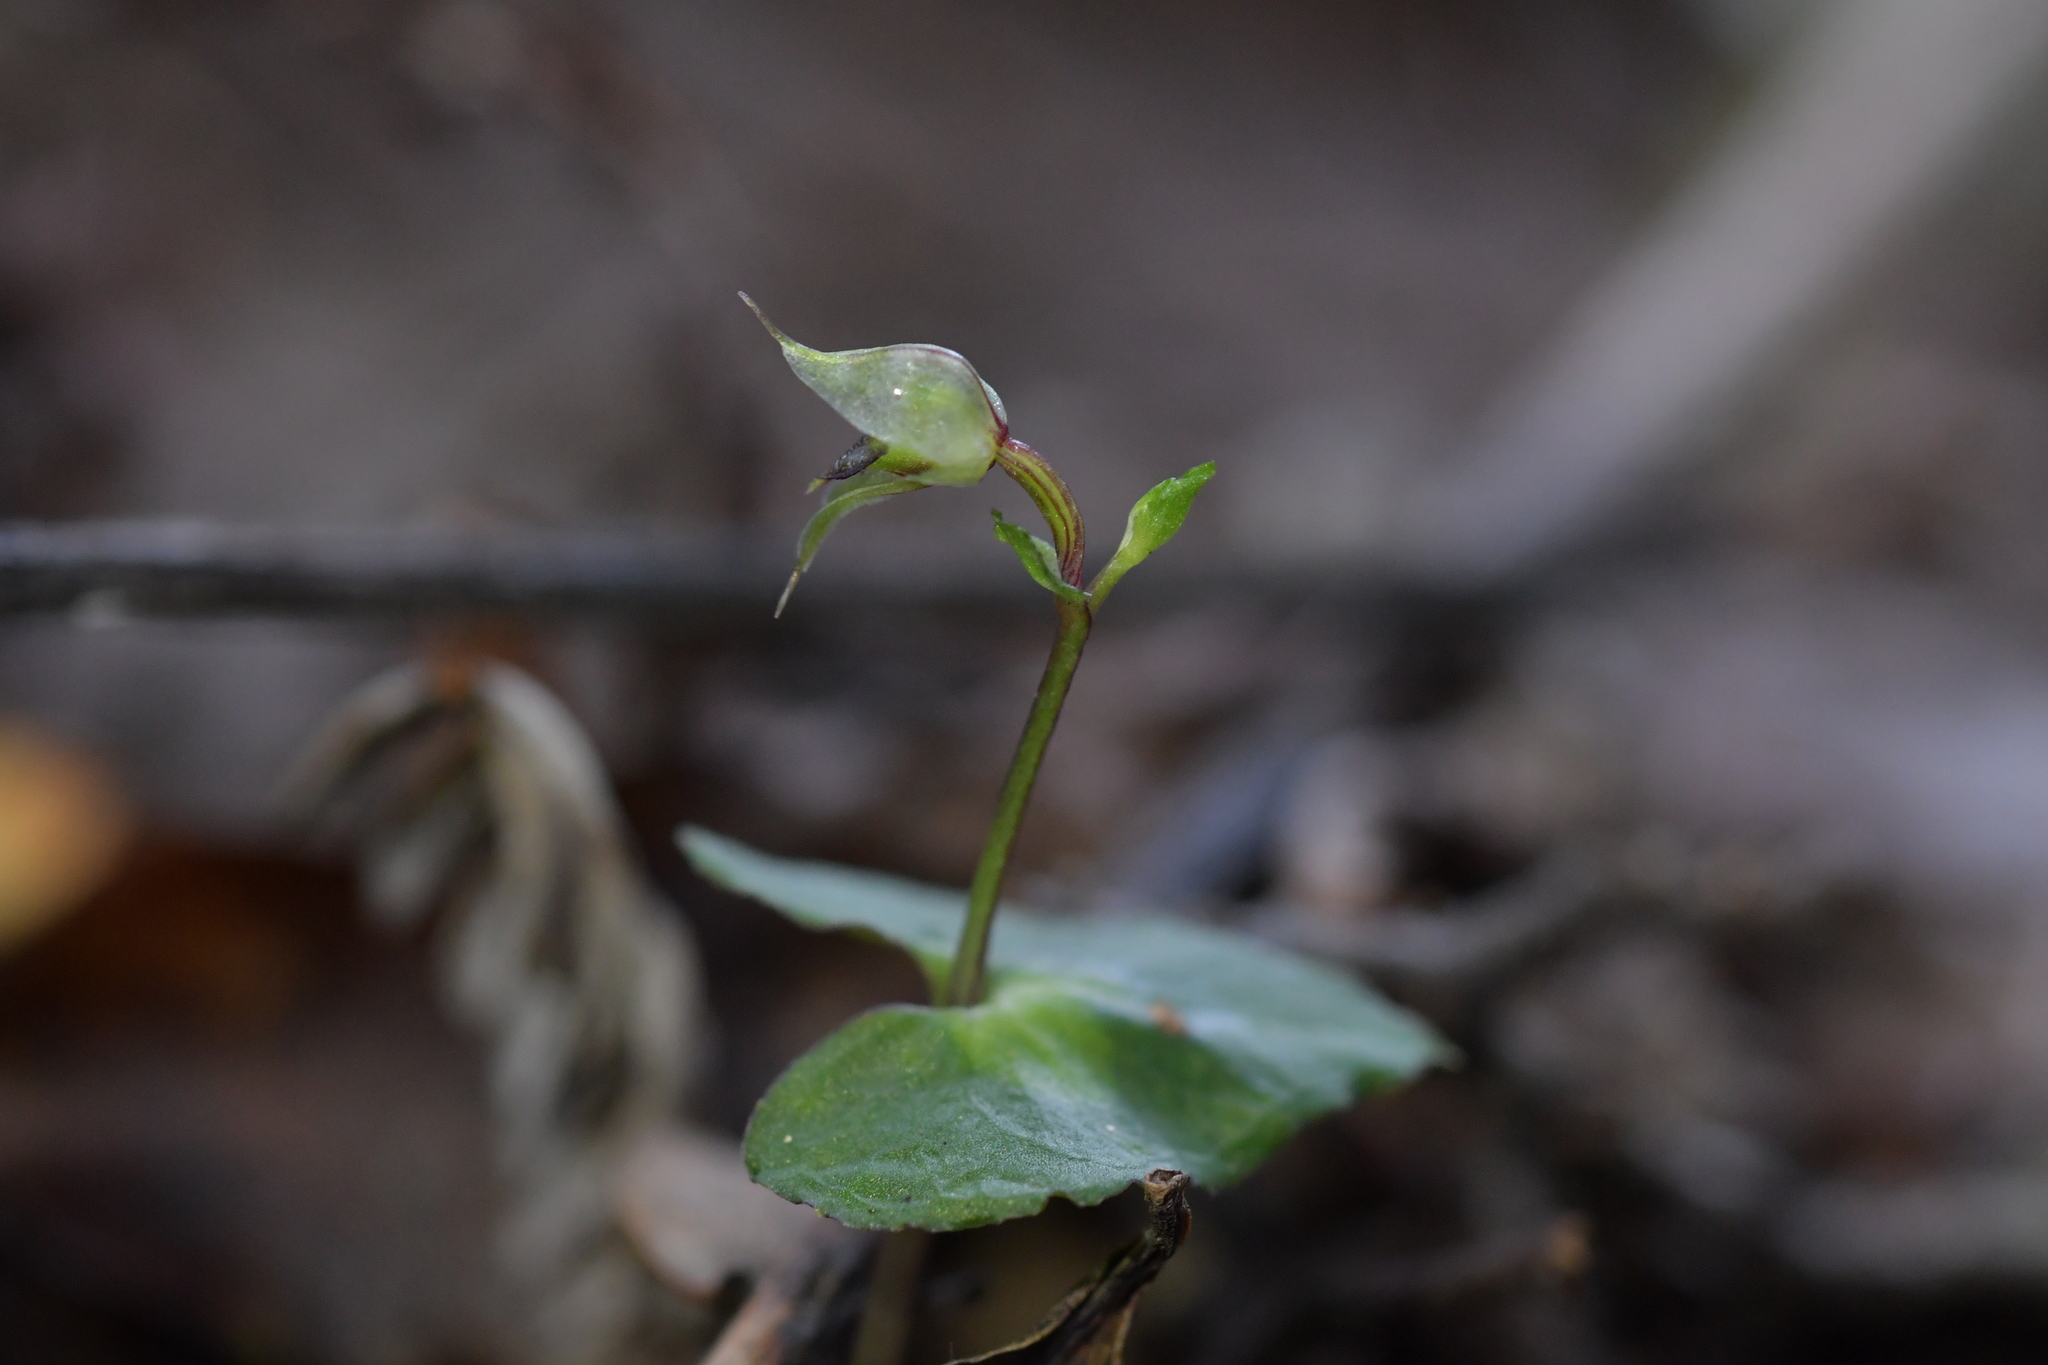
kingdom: Plantae
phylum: Tracheophyta
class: Liliopsida
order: Asparagales
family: Orchidaceae
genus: Acianthus
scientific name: Acianthus sinclairii
